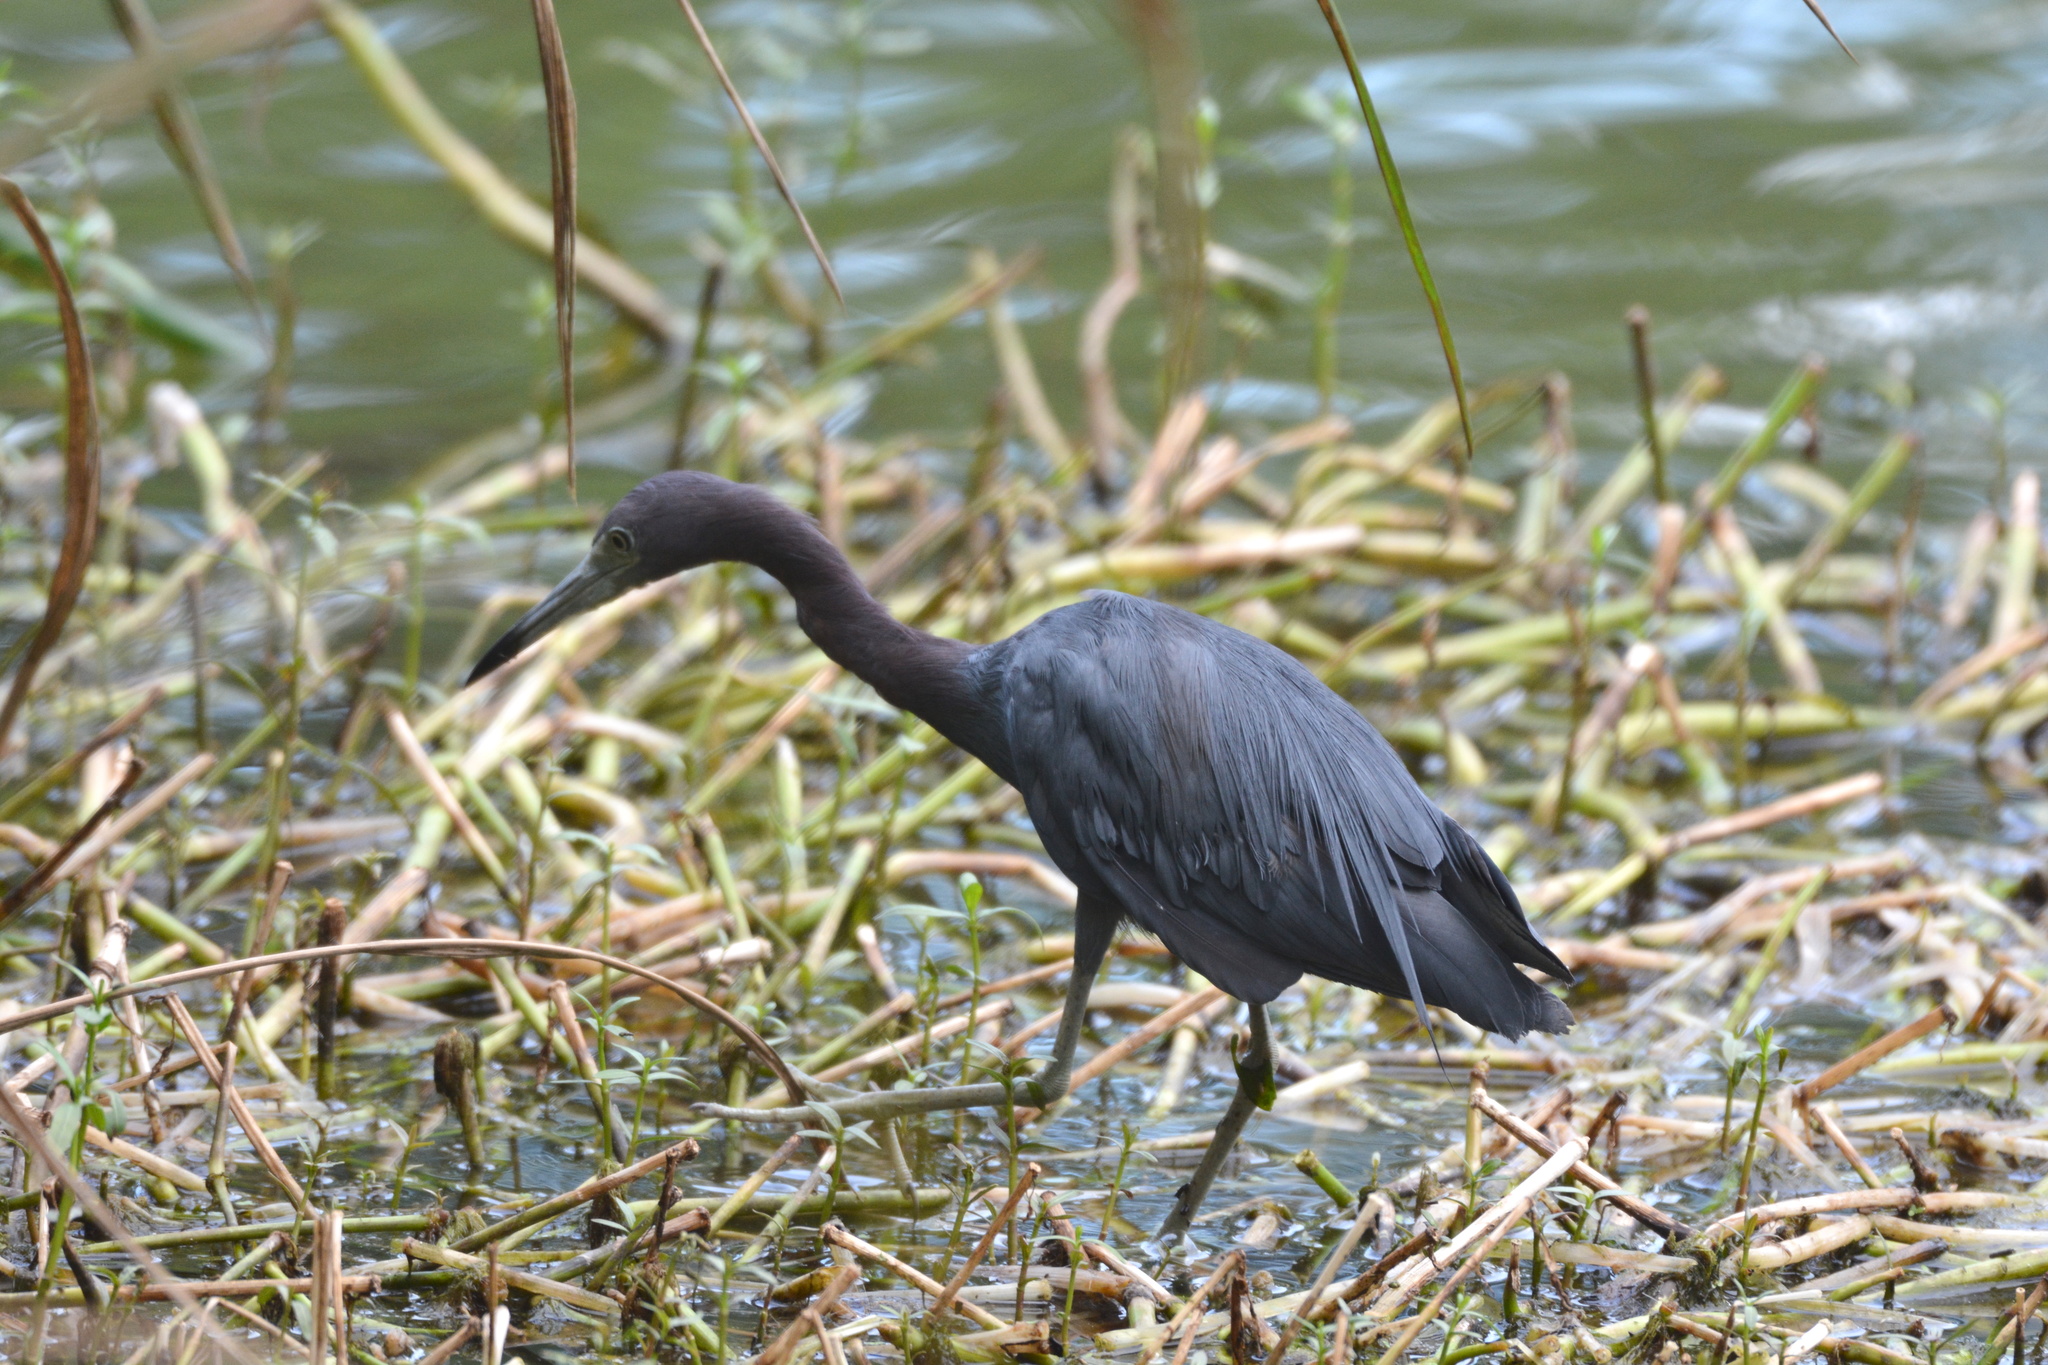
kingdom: Animalia
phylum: Chordata
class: Aves
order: Pelecaniformes
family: Ardeidae
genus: Egretta
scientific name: Egretta caerulea
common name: Little blue heron
